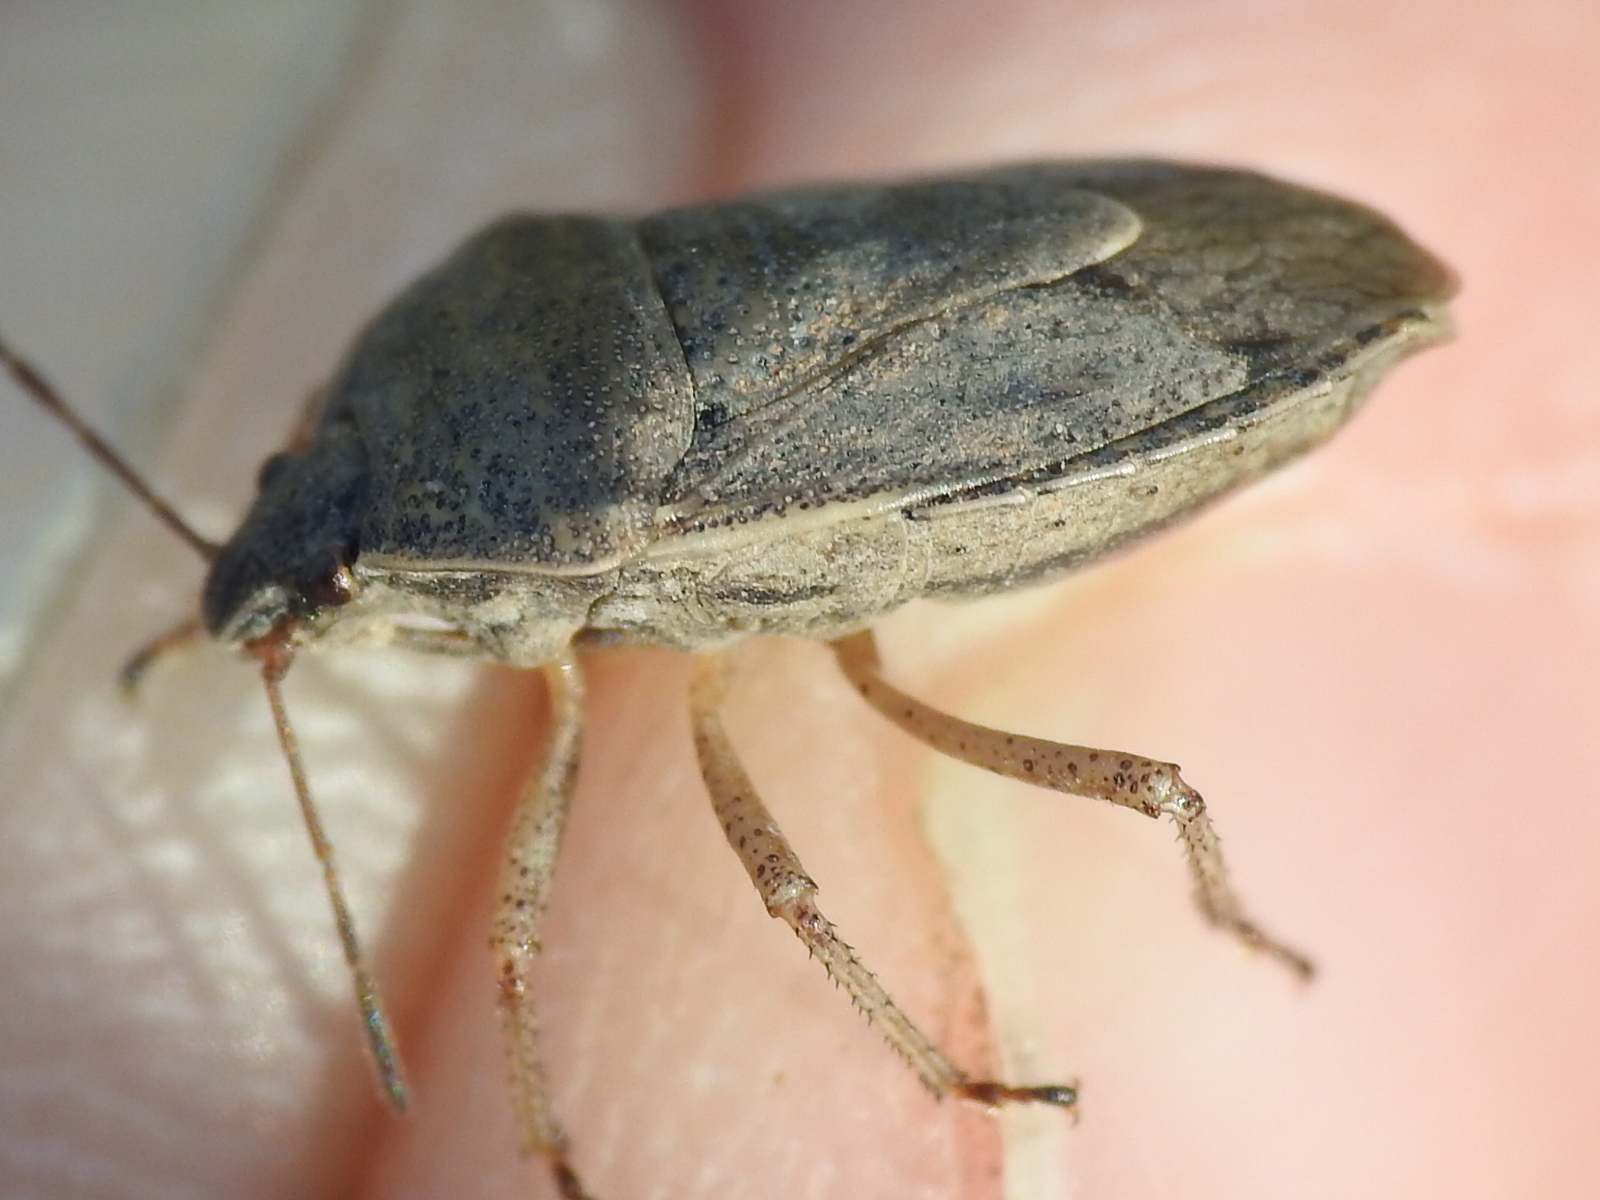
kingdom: Animalia
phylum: Arthropoda
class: Insecta
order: Hemiptera
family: Pentatomidae
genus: Hymenarcys
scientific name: Hymenarcys nervosa
